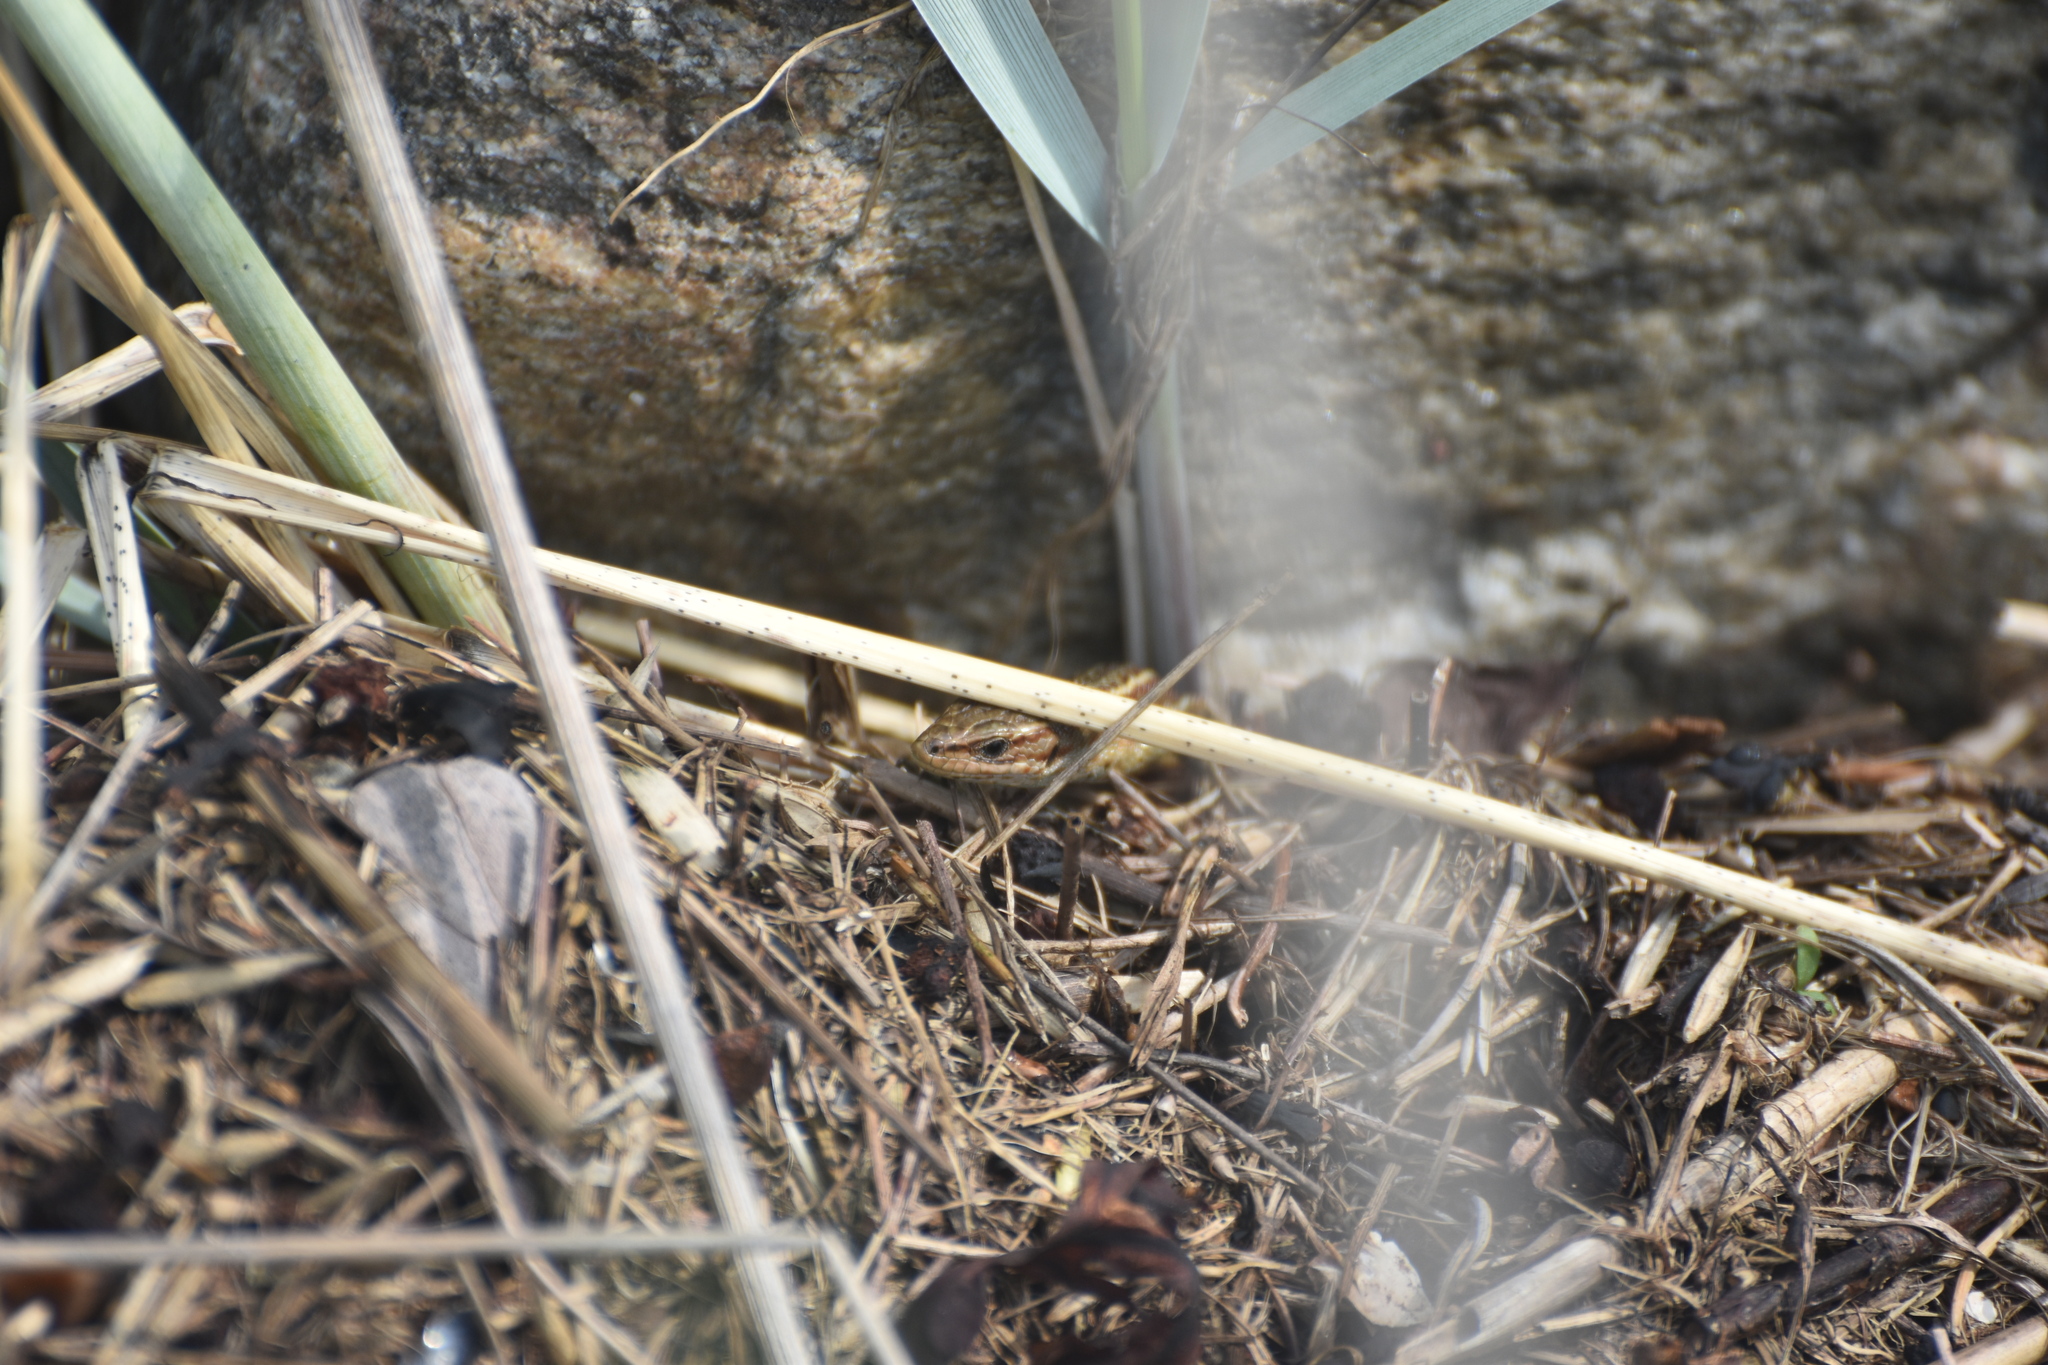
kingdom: Animalia
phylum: Chordata
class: Squamata
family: Lacertidae
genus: Zootoca
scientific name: Zootoca vivipara
